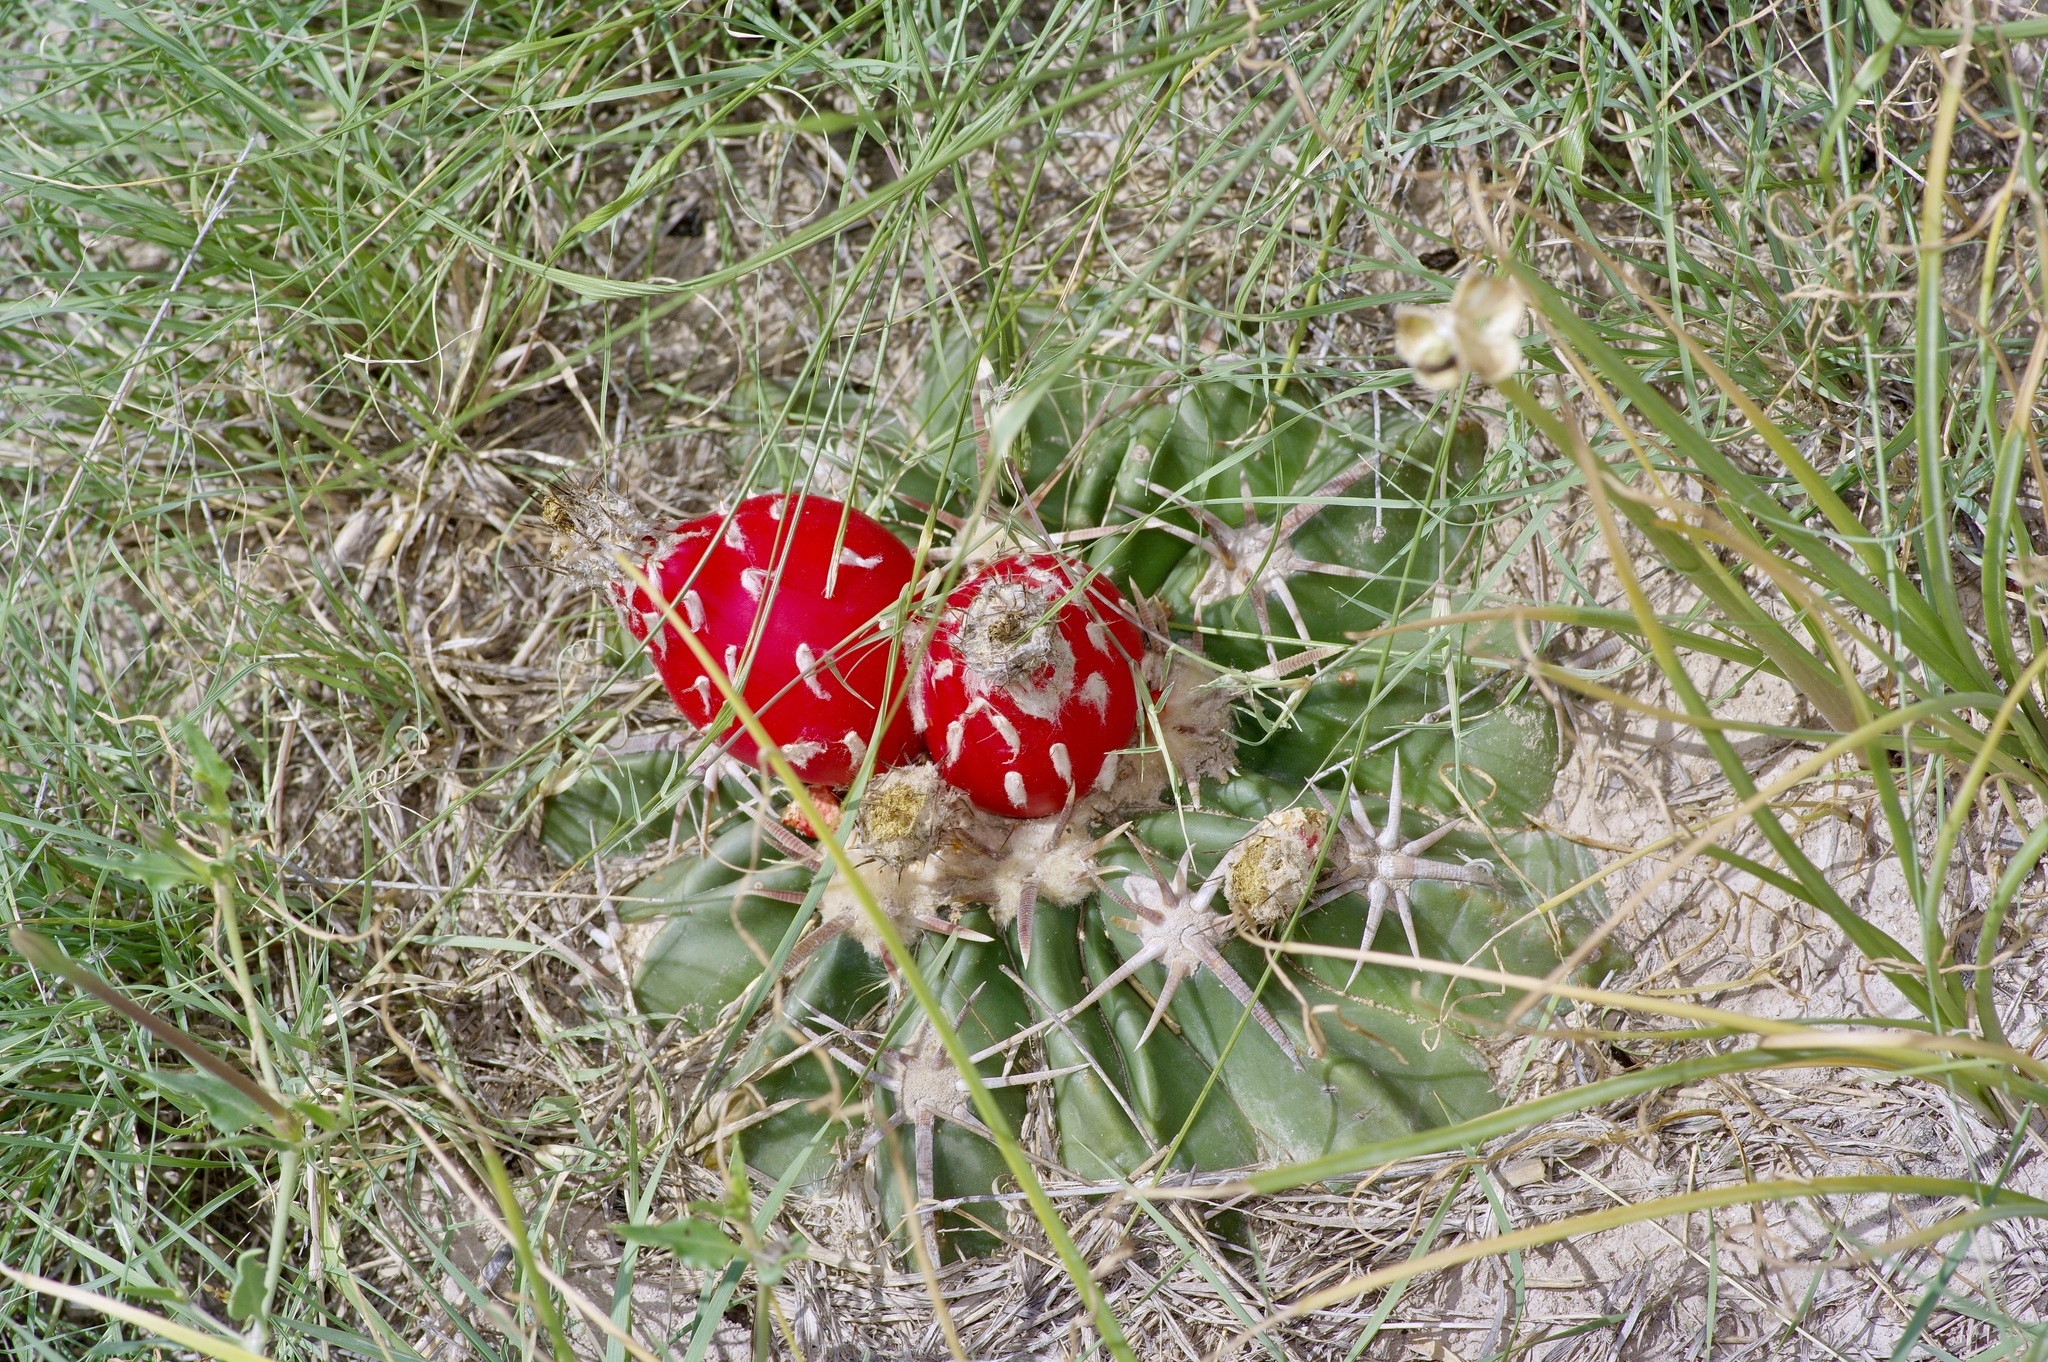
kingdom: Plantae
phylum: Tracheophyta
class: Magnoliopsida
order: Caryophyllales
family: Cactaceae
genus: Echinocactus
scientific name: Echinocactus texensis
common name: Devil's pincushion
